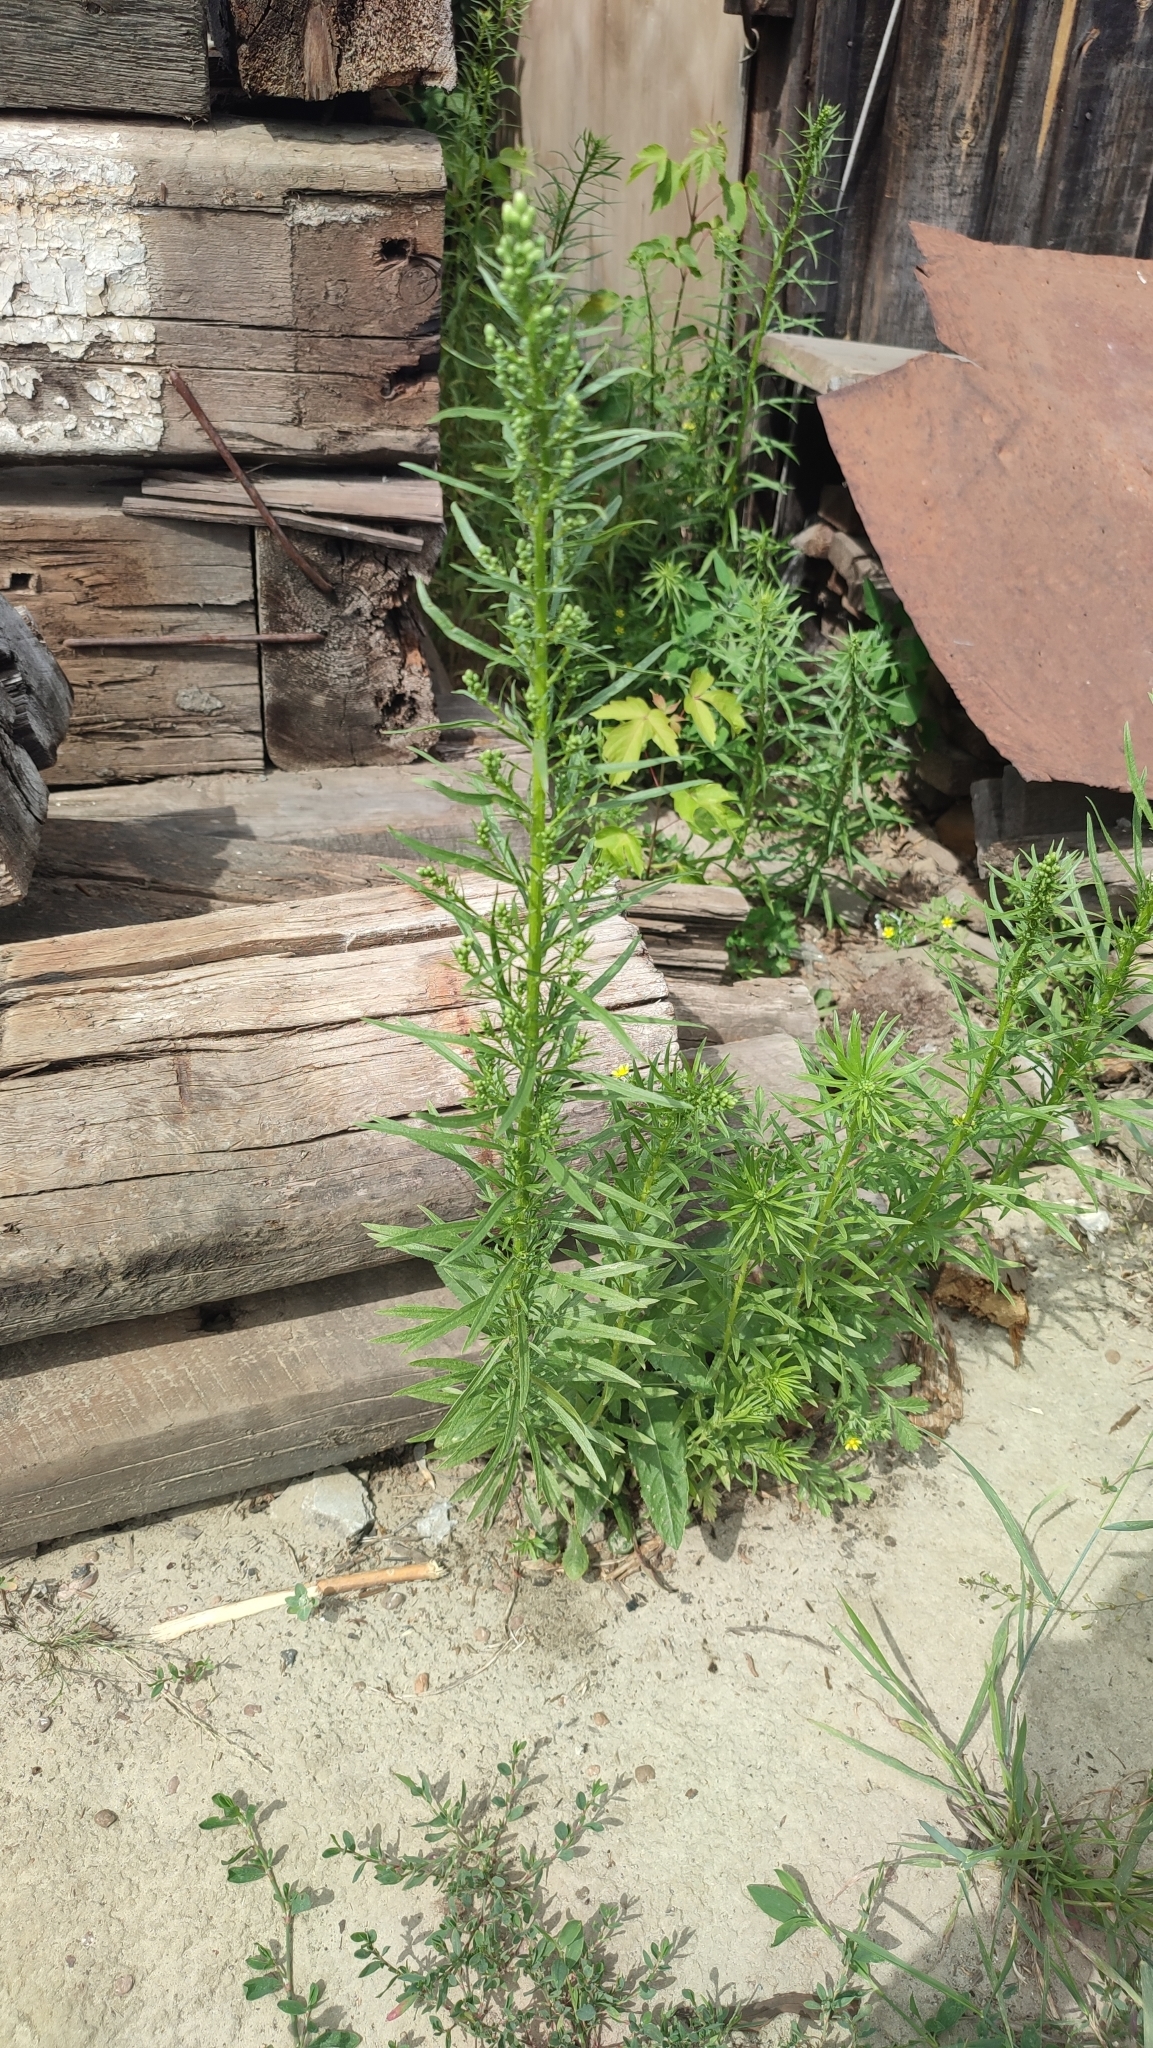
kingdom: Plantae
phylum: Tracheophyta
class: Magnoliopsida
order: Asterales
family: Asteraceae
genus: Erigeron
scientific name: Erigeron canadensis
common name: Canadian fleabane
